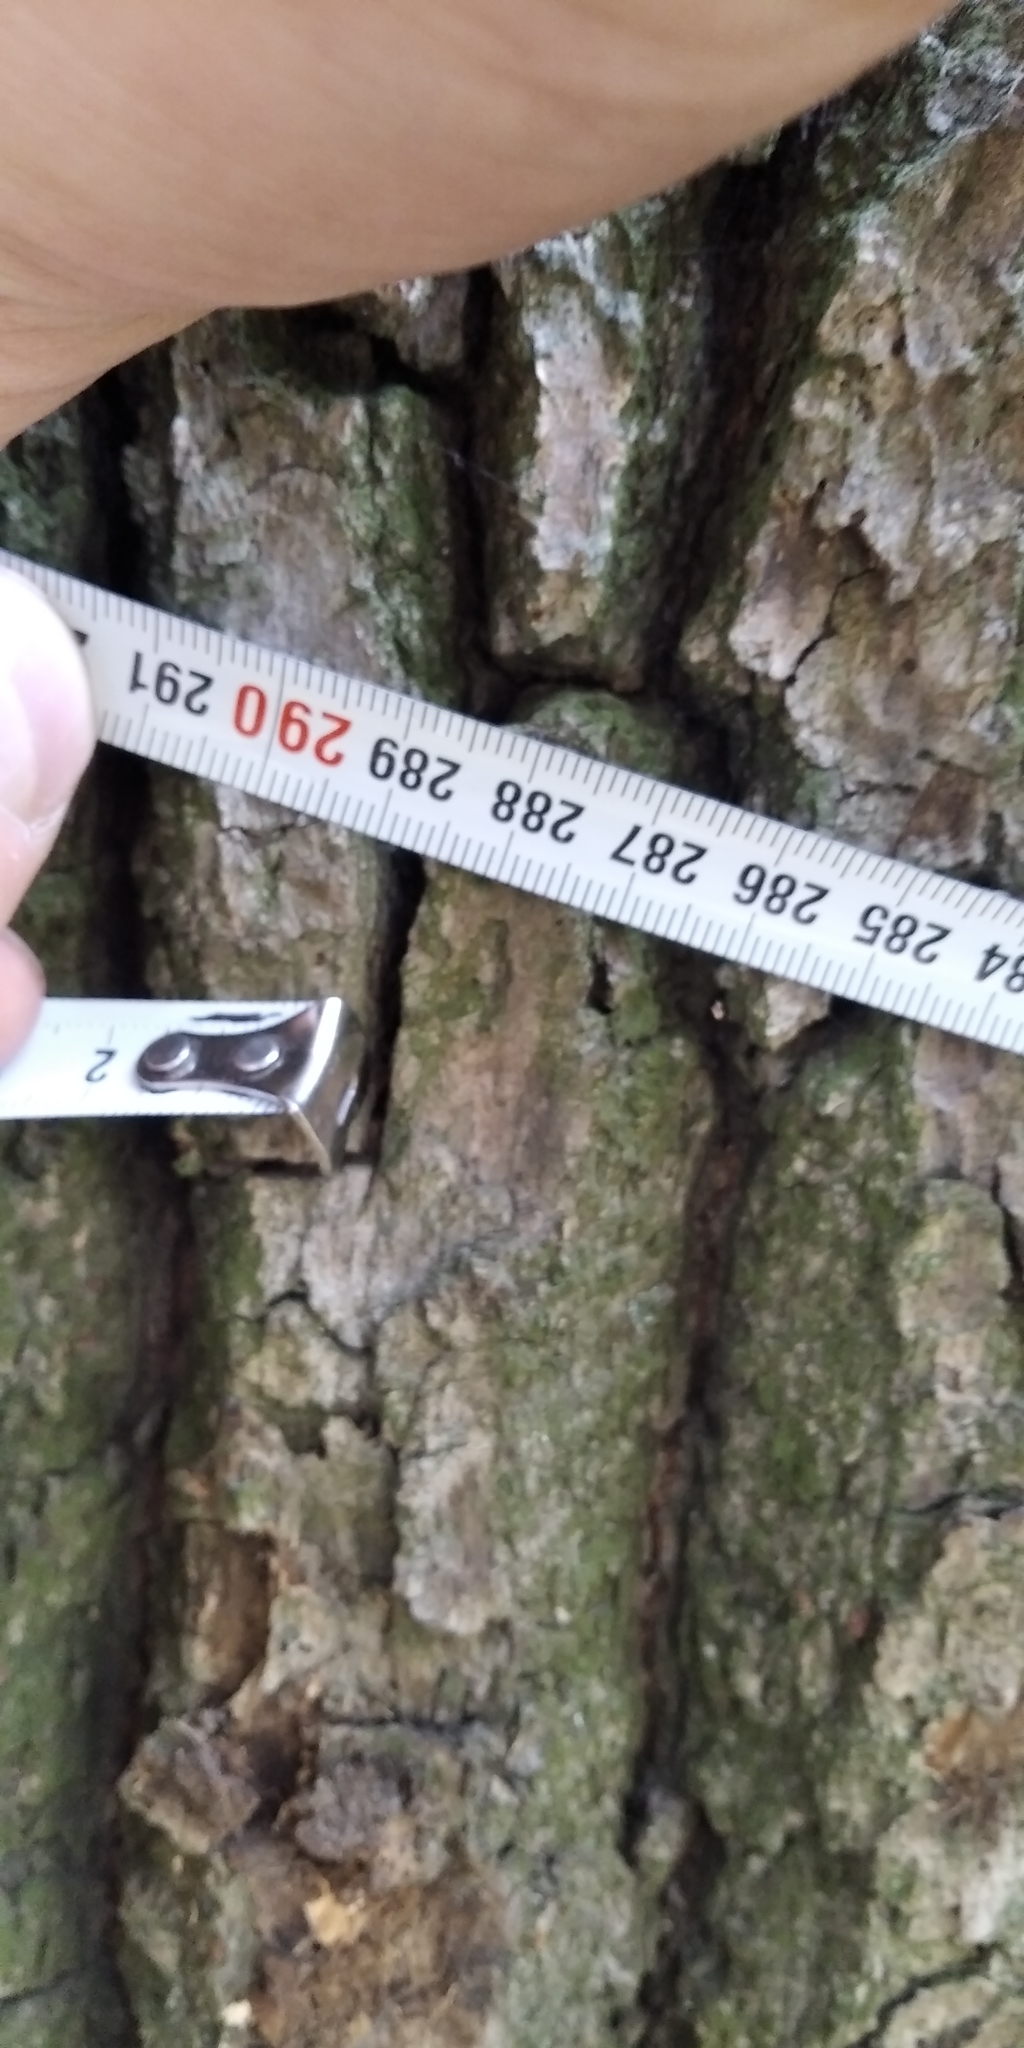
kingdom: Plantae
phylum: Tracheophyta
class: Magnoliopsida
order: Fagales
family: Fagaceae
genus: Quercus
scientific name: Quercus robur
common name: Pedunculate oak
